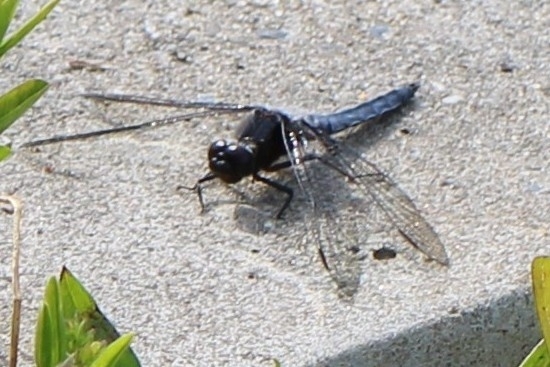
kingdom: Animalia
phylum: Arthropoda
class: Insecta
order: Odonata
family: Libellulidae
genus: Ladona
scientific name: Ladona deplanata
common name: Blue corporal
